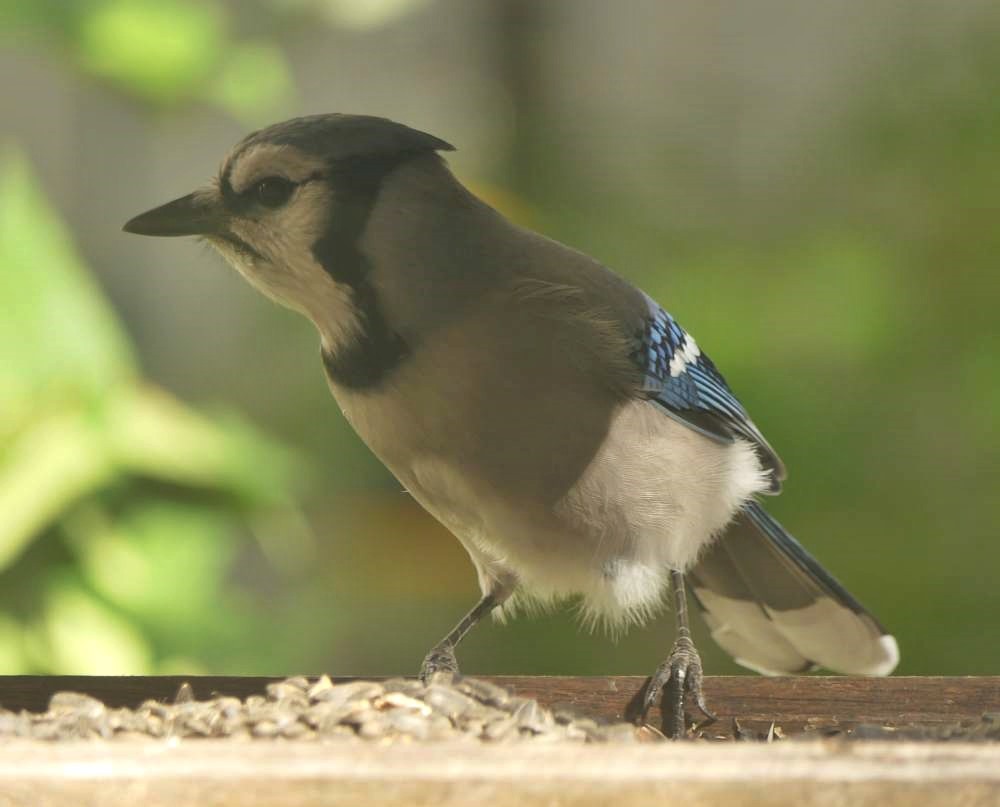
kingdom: Animalia
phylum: Chordata
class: Aves
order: Passeriformes
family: Corvidae
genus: Cyanocitta
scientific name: Cyanocitta cristata
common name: Blue jay
